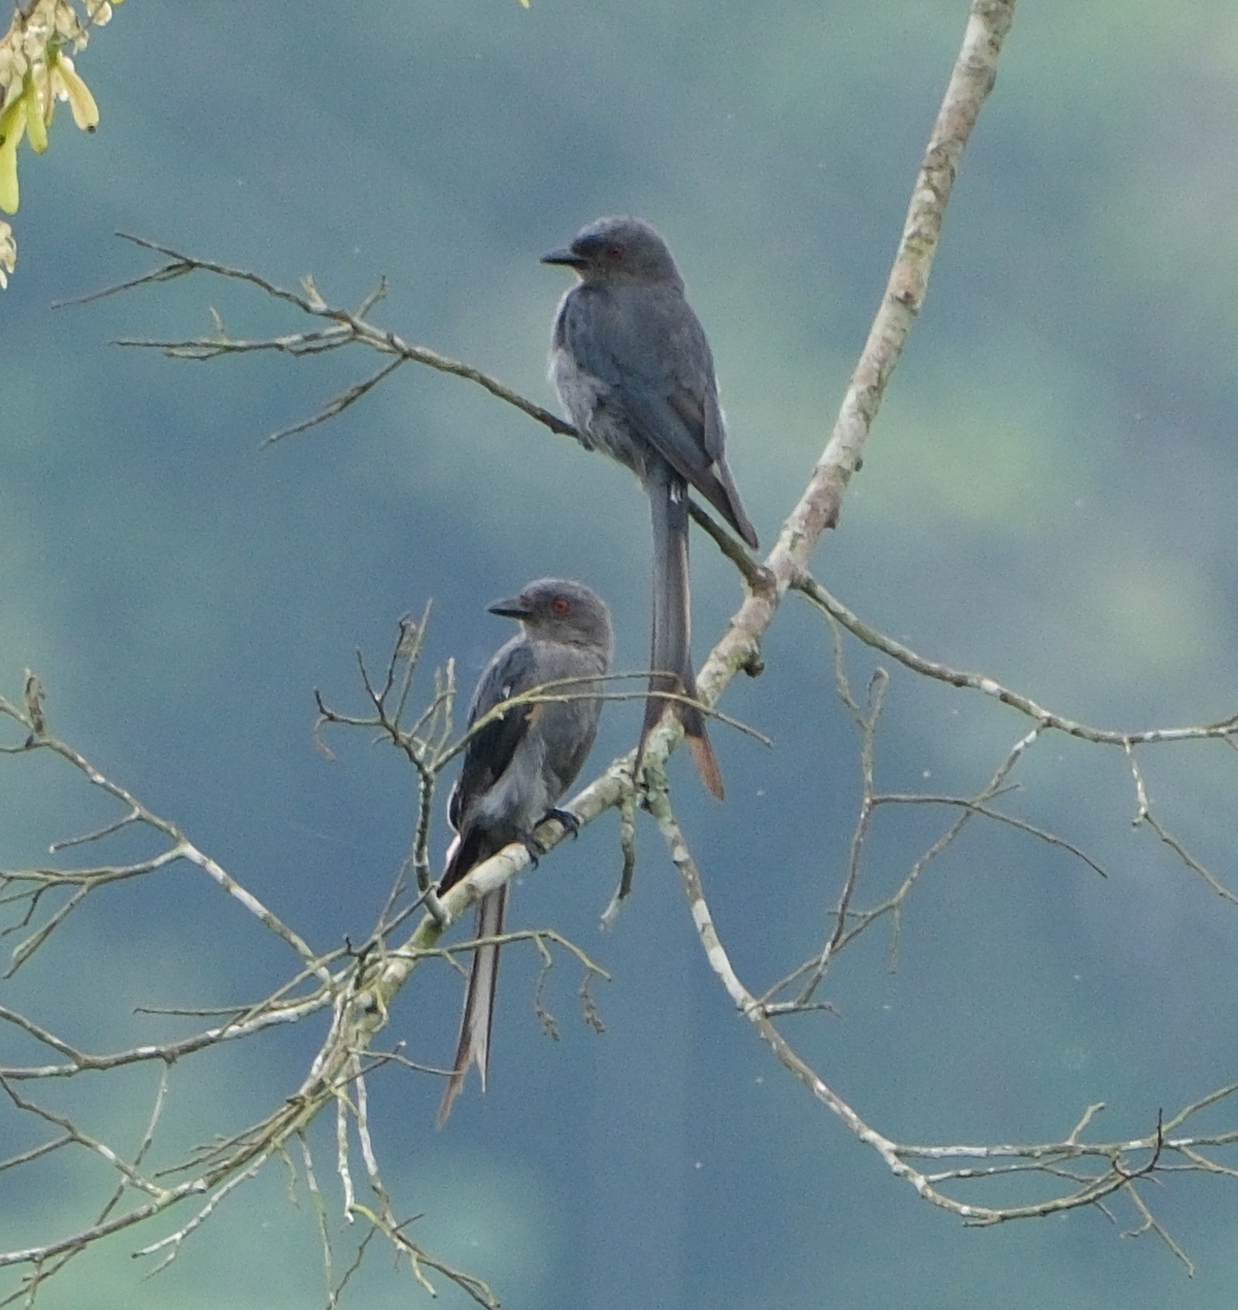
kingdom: Animalia
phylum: Chordata
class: Aves
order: Passeriformes
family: Dicruridae
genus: Dicrurus
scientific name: Dicrurus leucophaeus
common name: Ashy drongo
